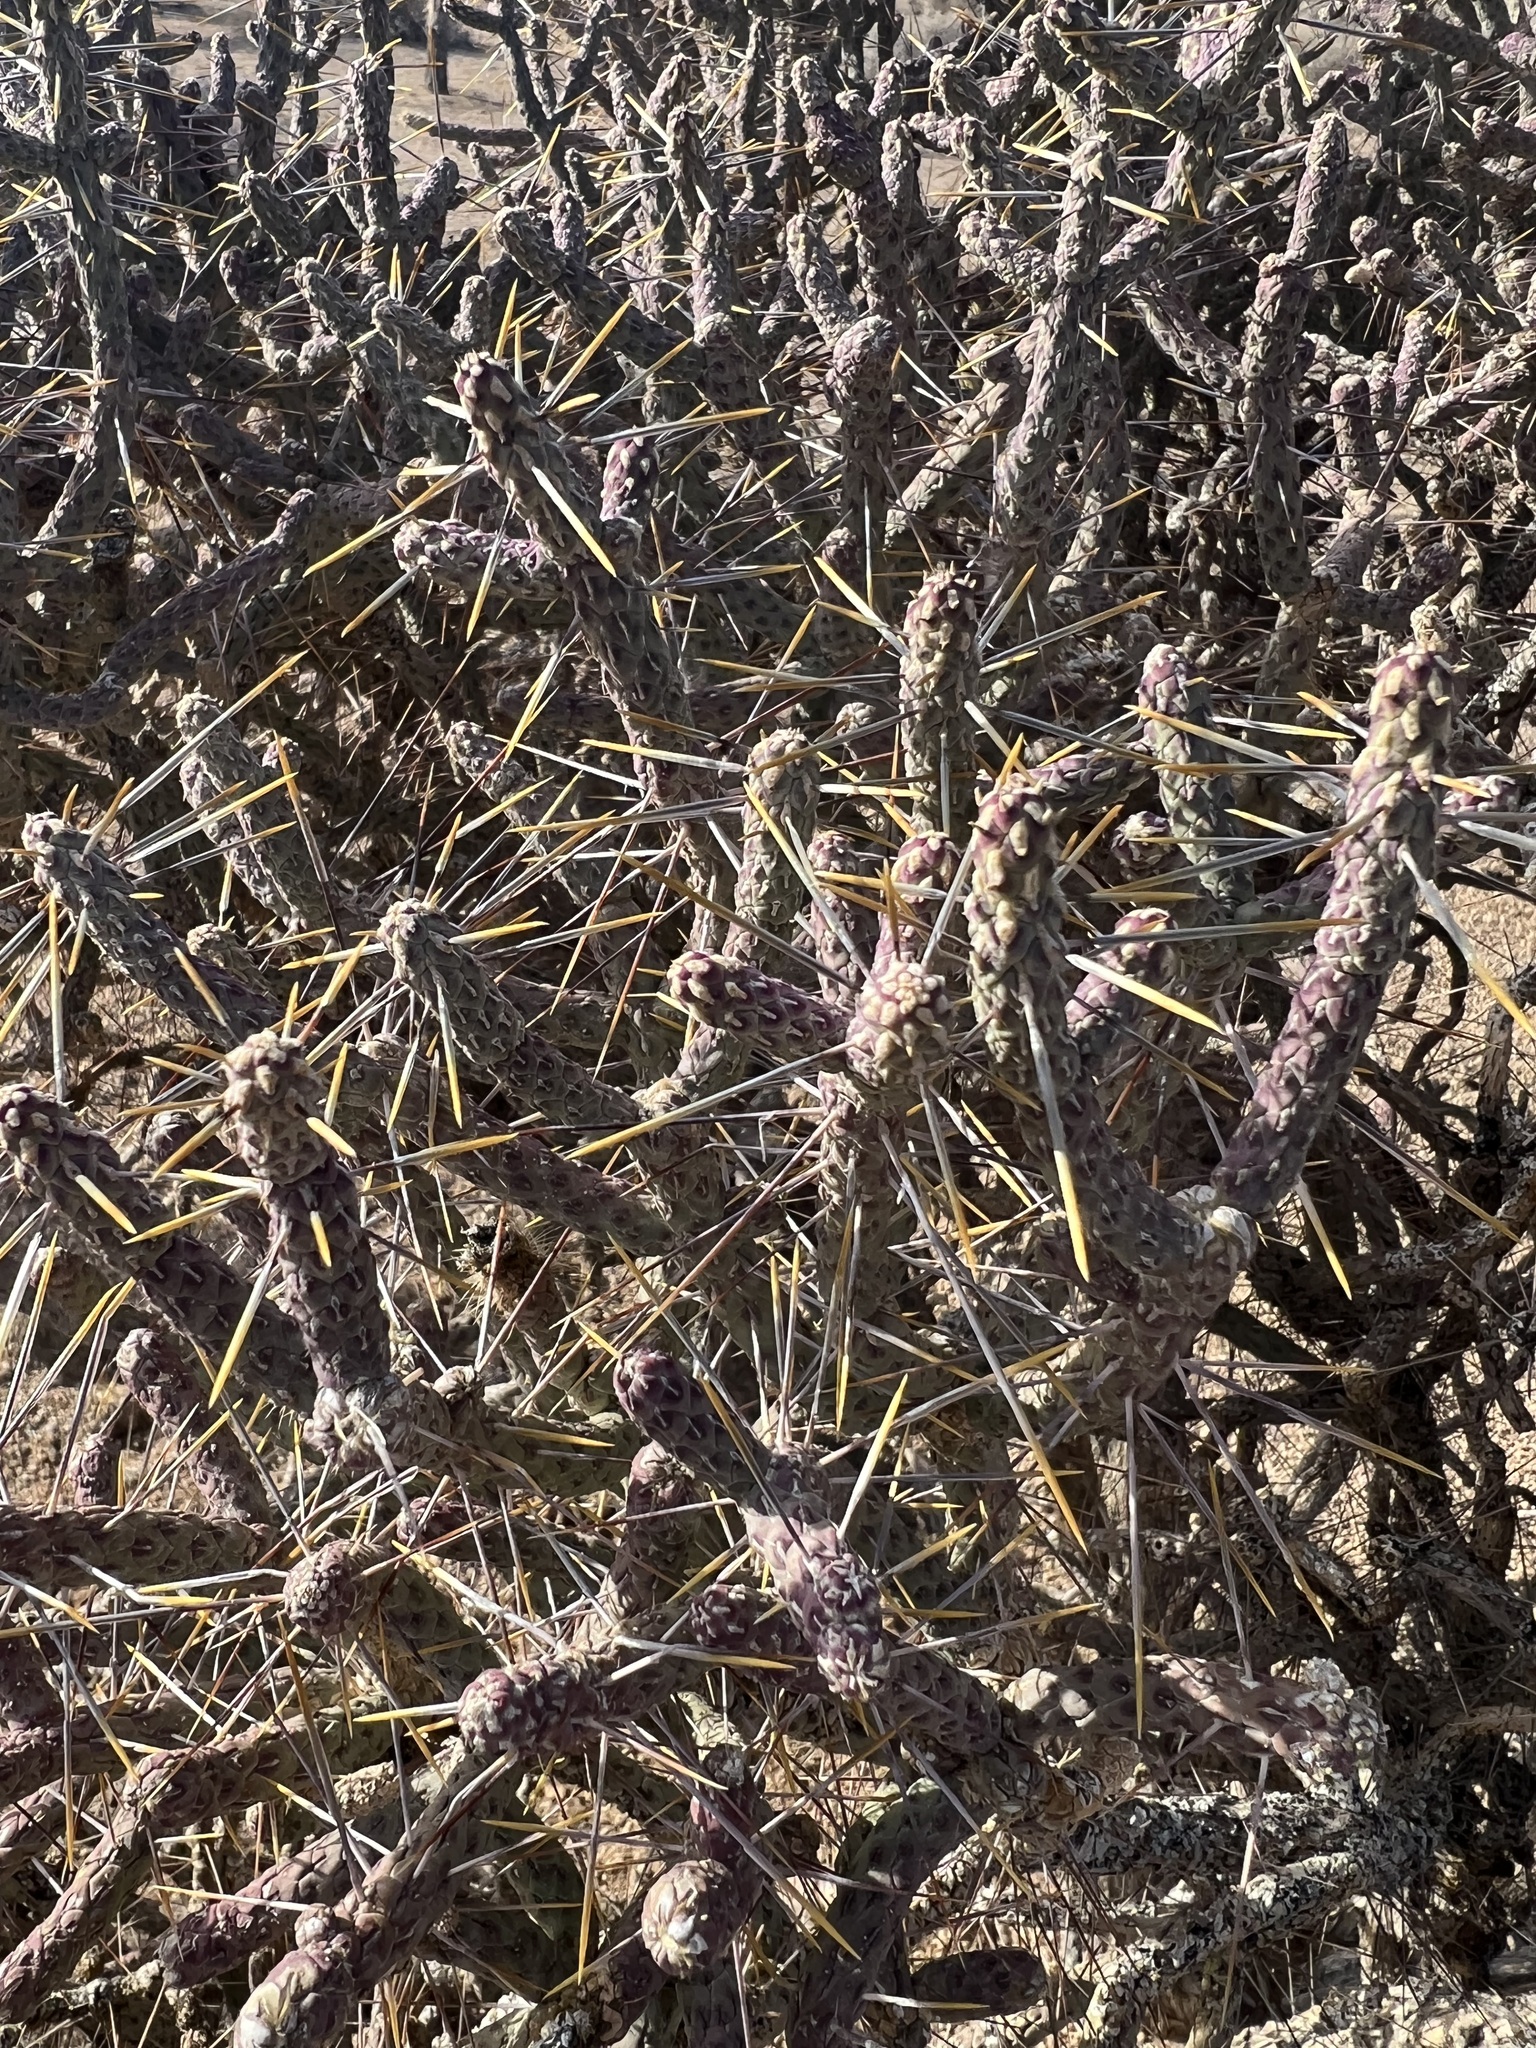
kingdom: Plantae
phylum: Tracheophyta
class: Magnoliopsida
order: Caryophyllales
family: Cactaceae
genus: Cylindropuntia
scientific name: Cylindropuntia ramosissima
